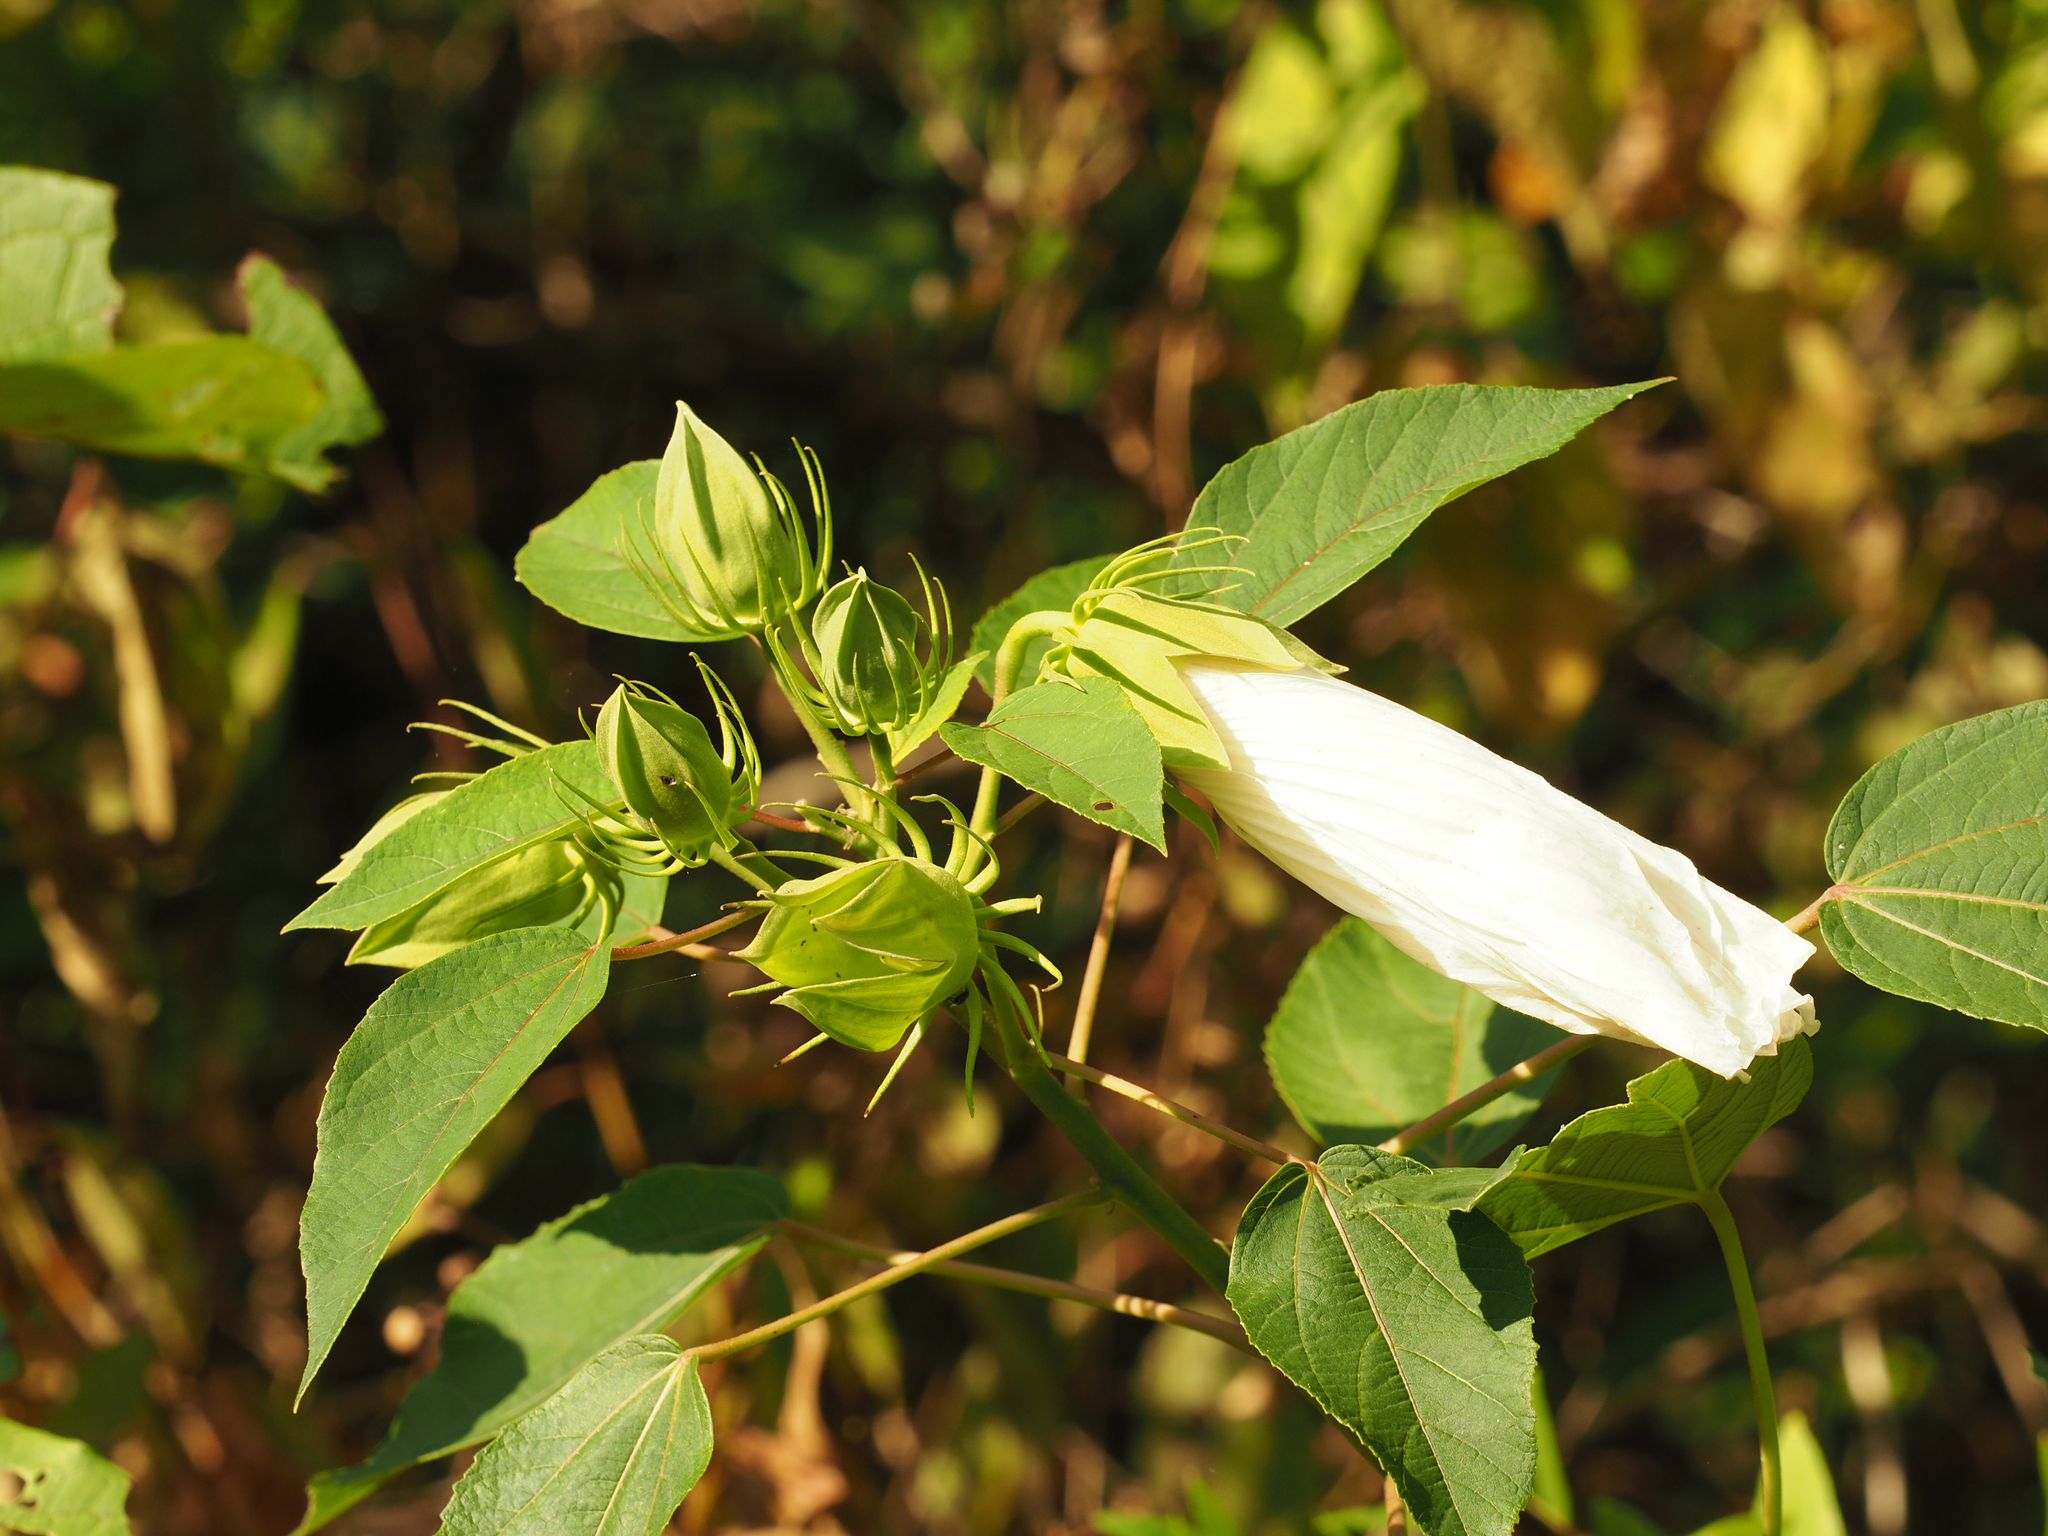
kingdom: Plantae
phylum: Tracheophyta
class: Magnoliopsida
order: Malvales
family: Malvaceae
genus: Hibiscus
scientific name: Hibiscus moscheutos
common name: Common rose-mallow
